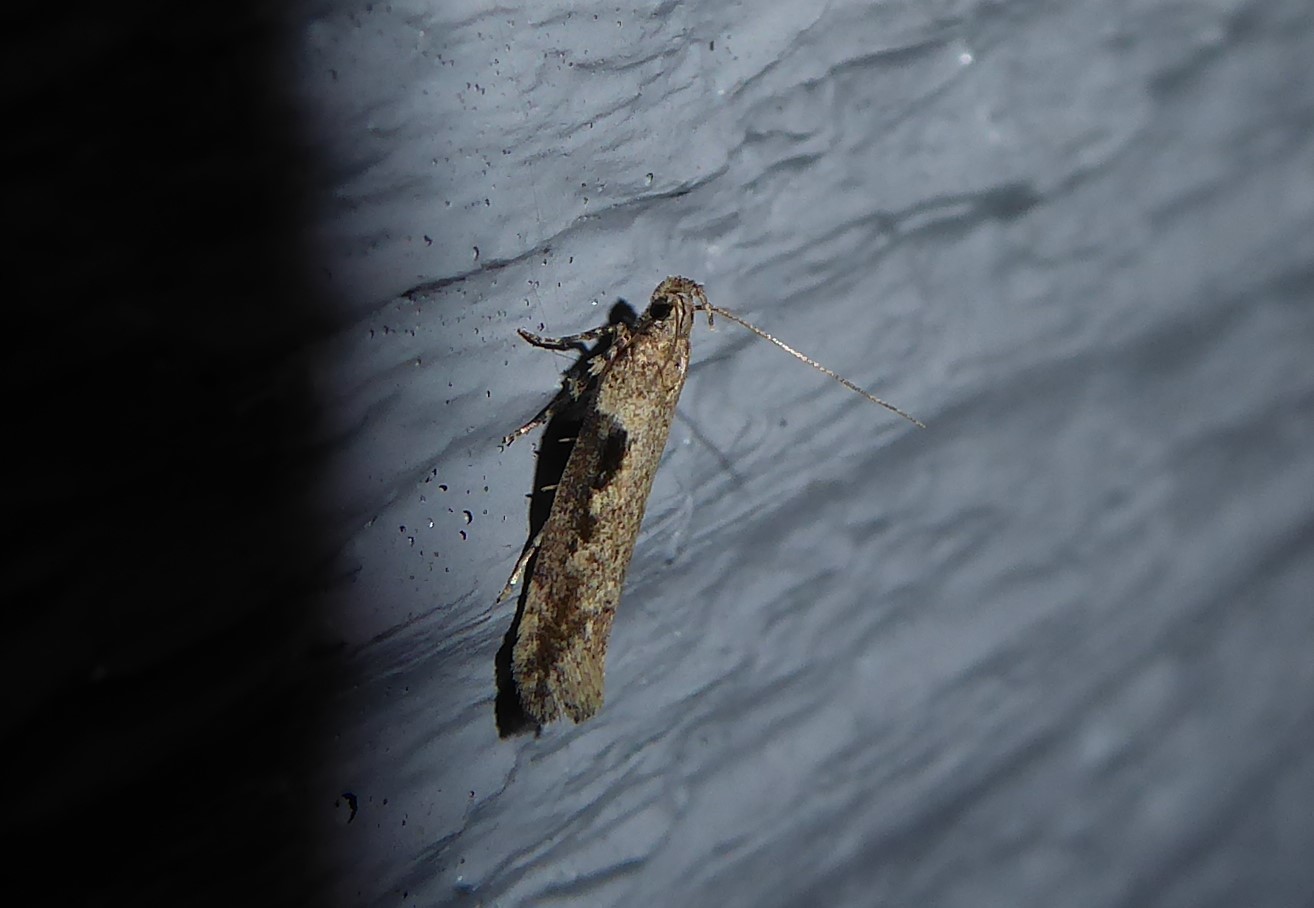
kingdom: Animalia
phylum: Arthropoda
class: Insecta
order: Lepidoptera
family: Gelechiidae
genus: Symmetrischema
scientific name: Symmetrischema tangolias
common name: Moth
